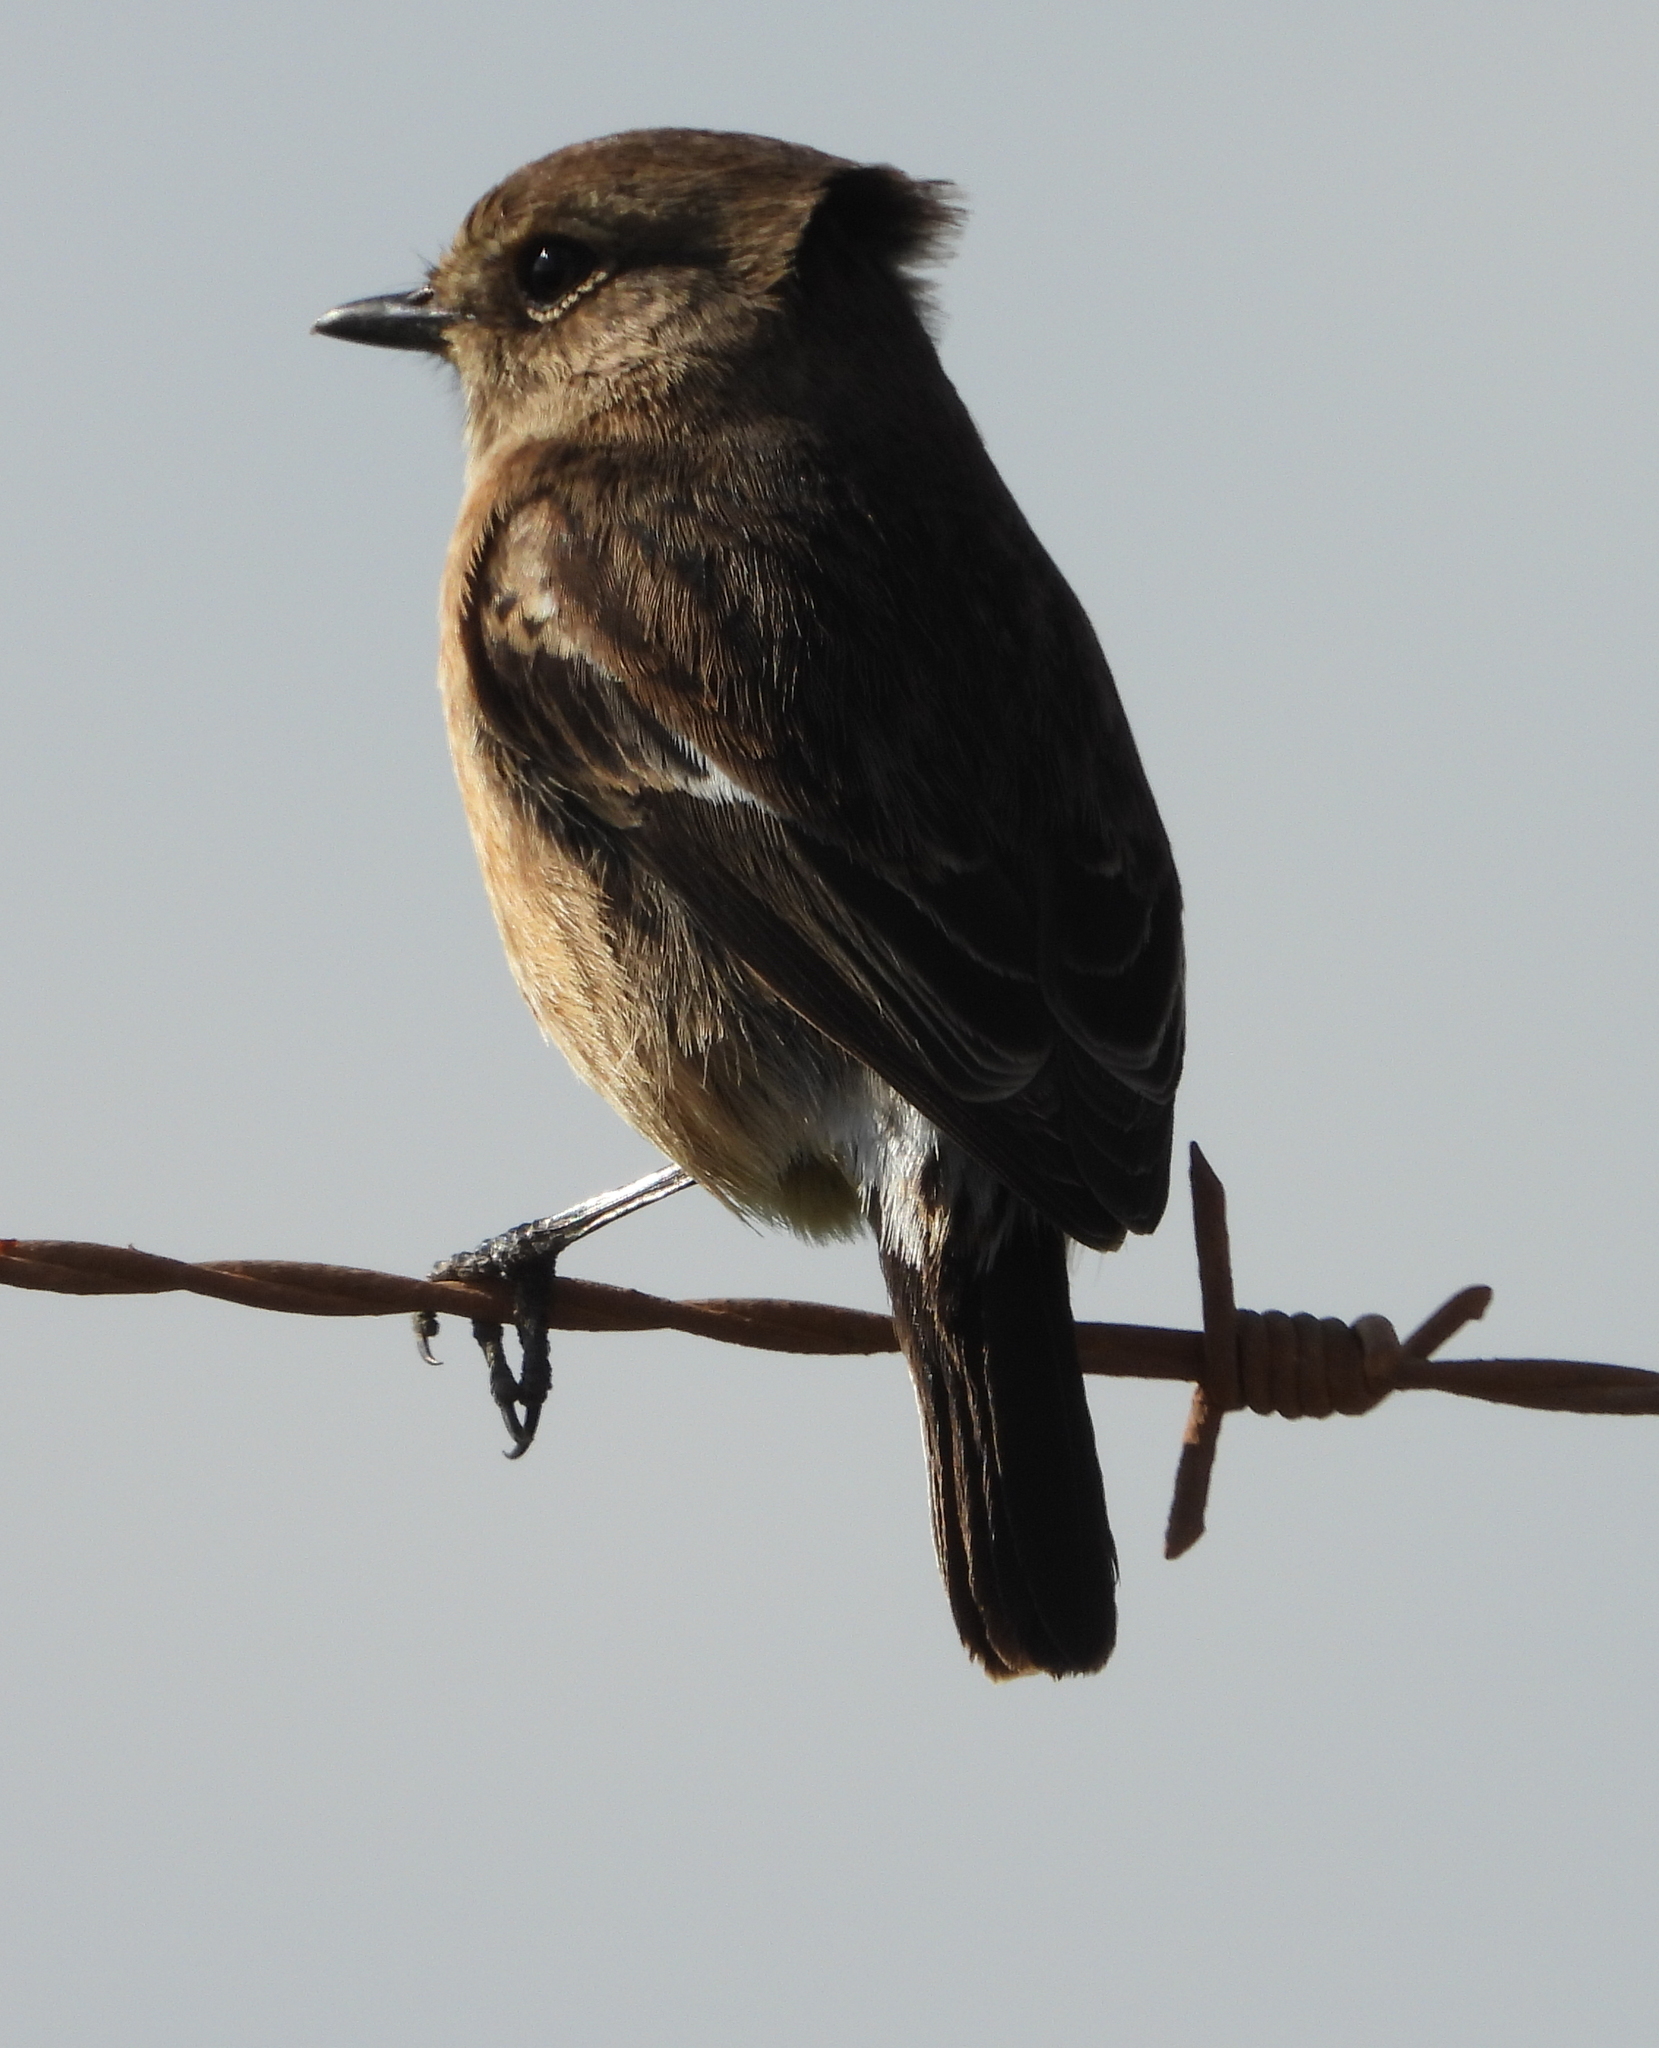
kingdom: Animalia
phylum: Chordata
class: Aves
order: Passeriformes
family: Muscicapidae
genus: Saxicola
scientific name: Saxicola torquatus
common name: African stonechat
